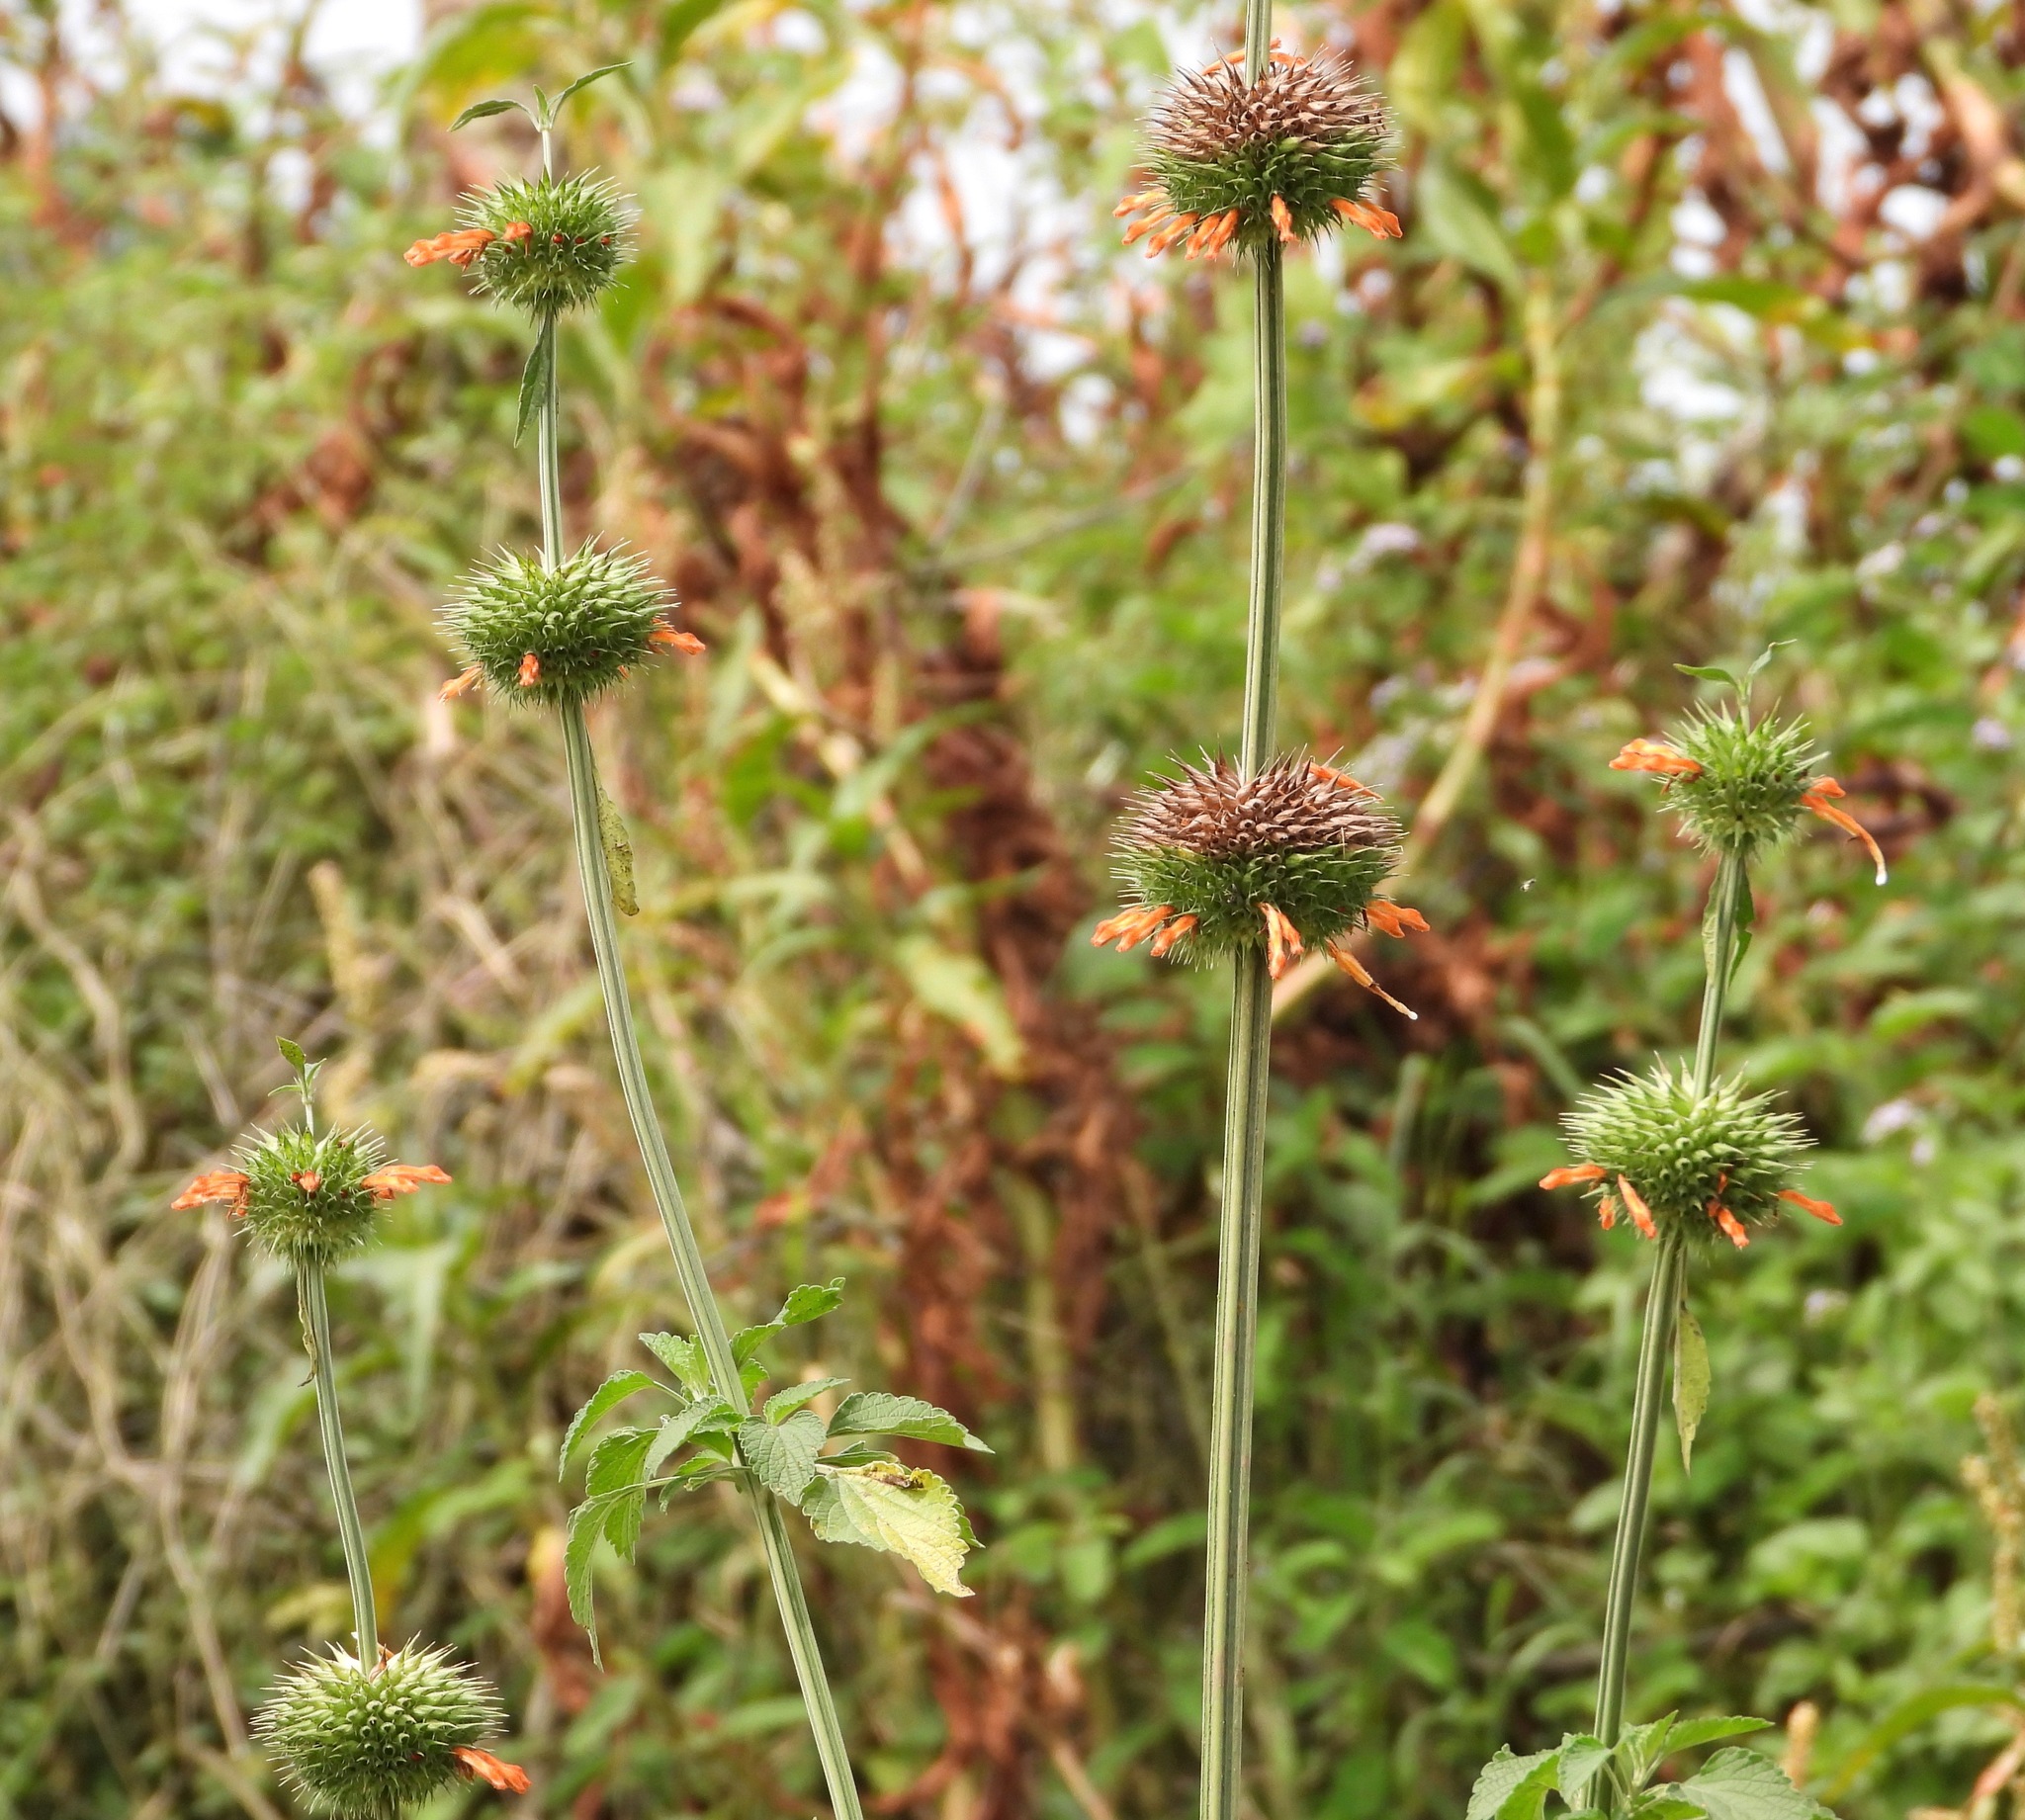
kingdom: Plantae
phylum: Tracheophyta
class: Magnoliopsida
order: Lamiales
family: Lamiaceae
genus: Leonotis
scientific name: Leonotis nepetifolia
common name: Christmas candlestick
